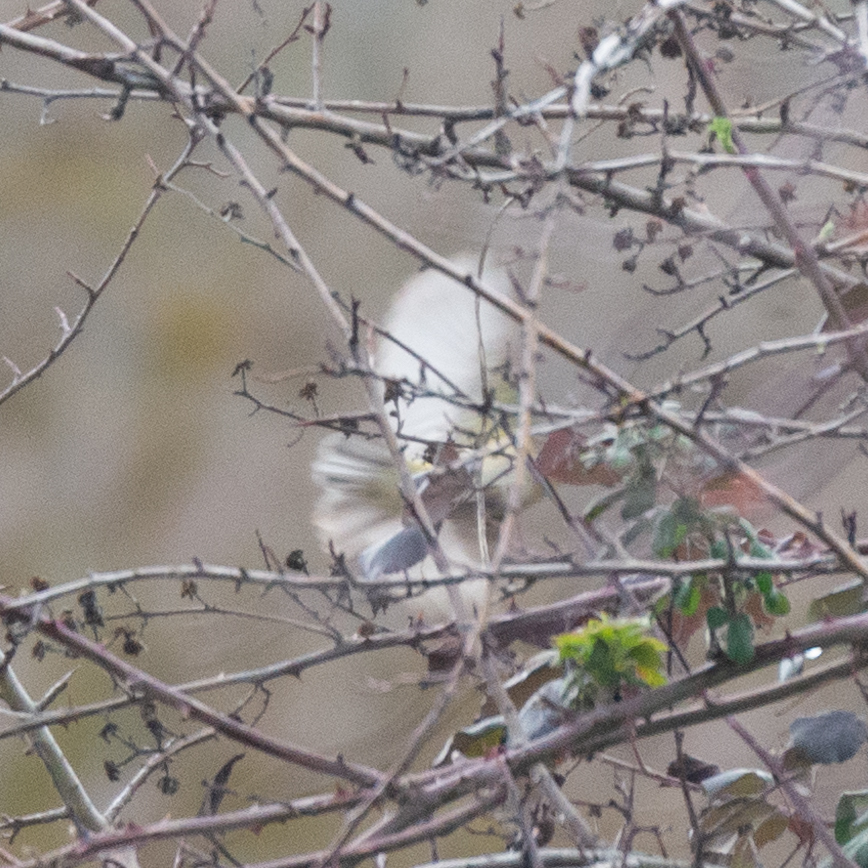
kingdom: Animalia
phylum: Chordata
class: Aves
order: Passeriformes
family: Phylloscopidae
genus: Phylloscopus
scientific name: Phylloscopus collybita
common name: Common chiffchaff
